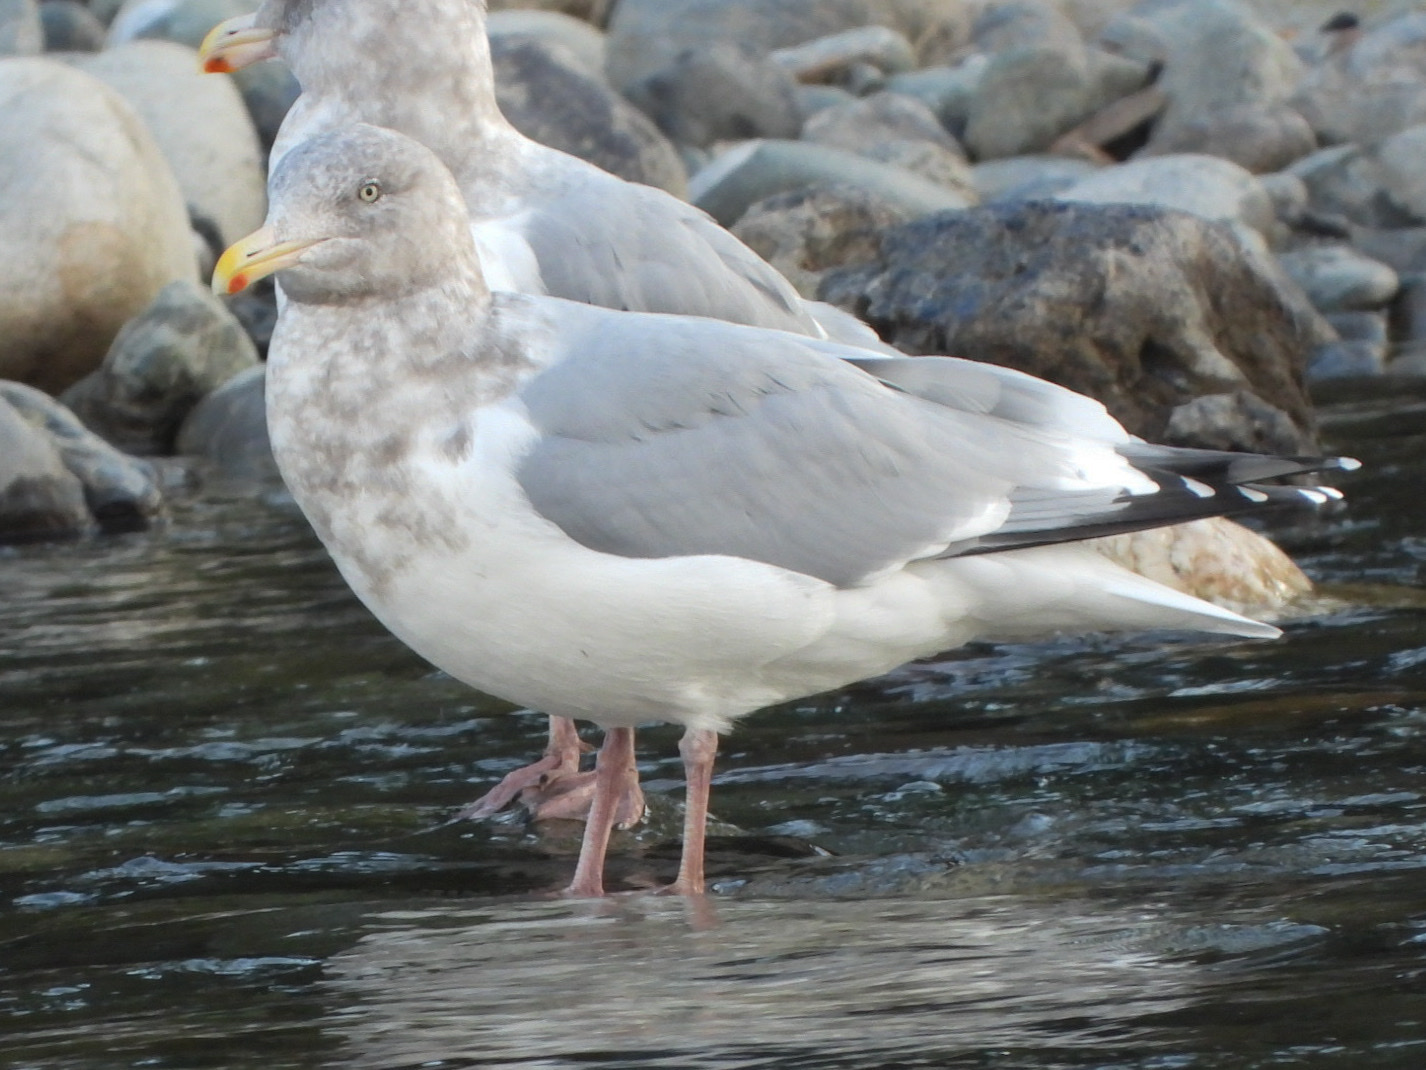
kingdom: Animalia
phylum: Chordata
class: Aves
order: Charadriiformes
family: Laridae
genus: Larus
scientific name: Larus
